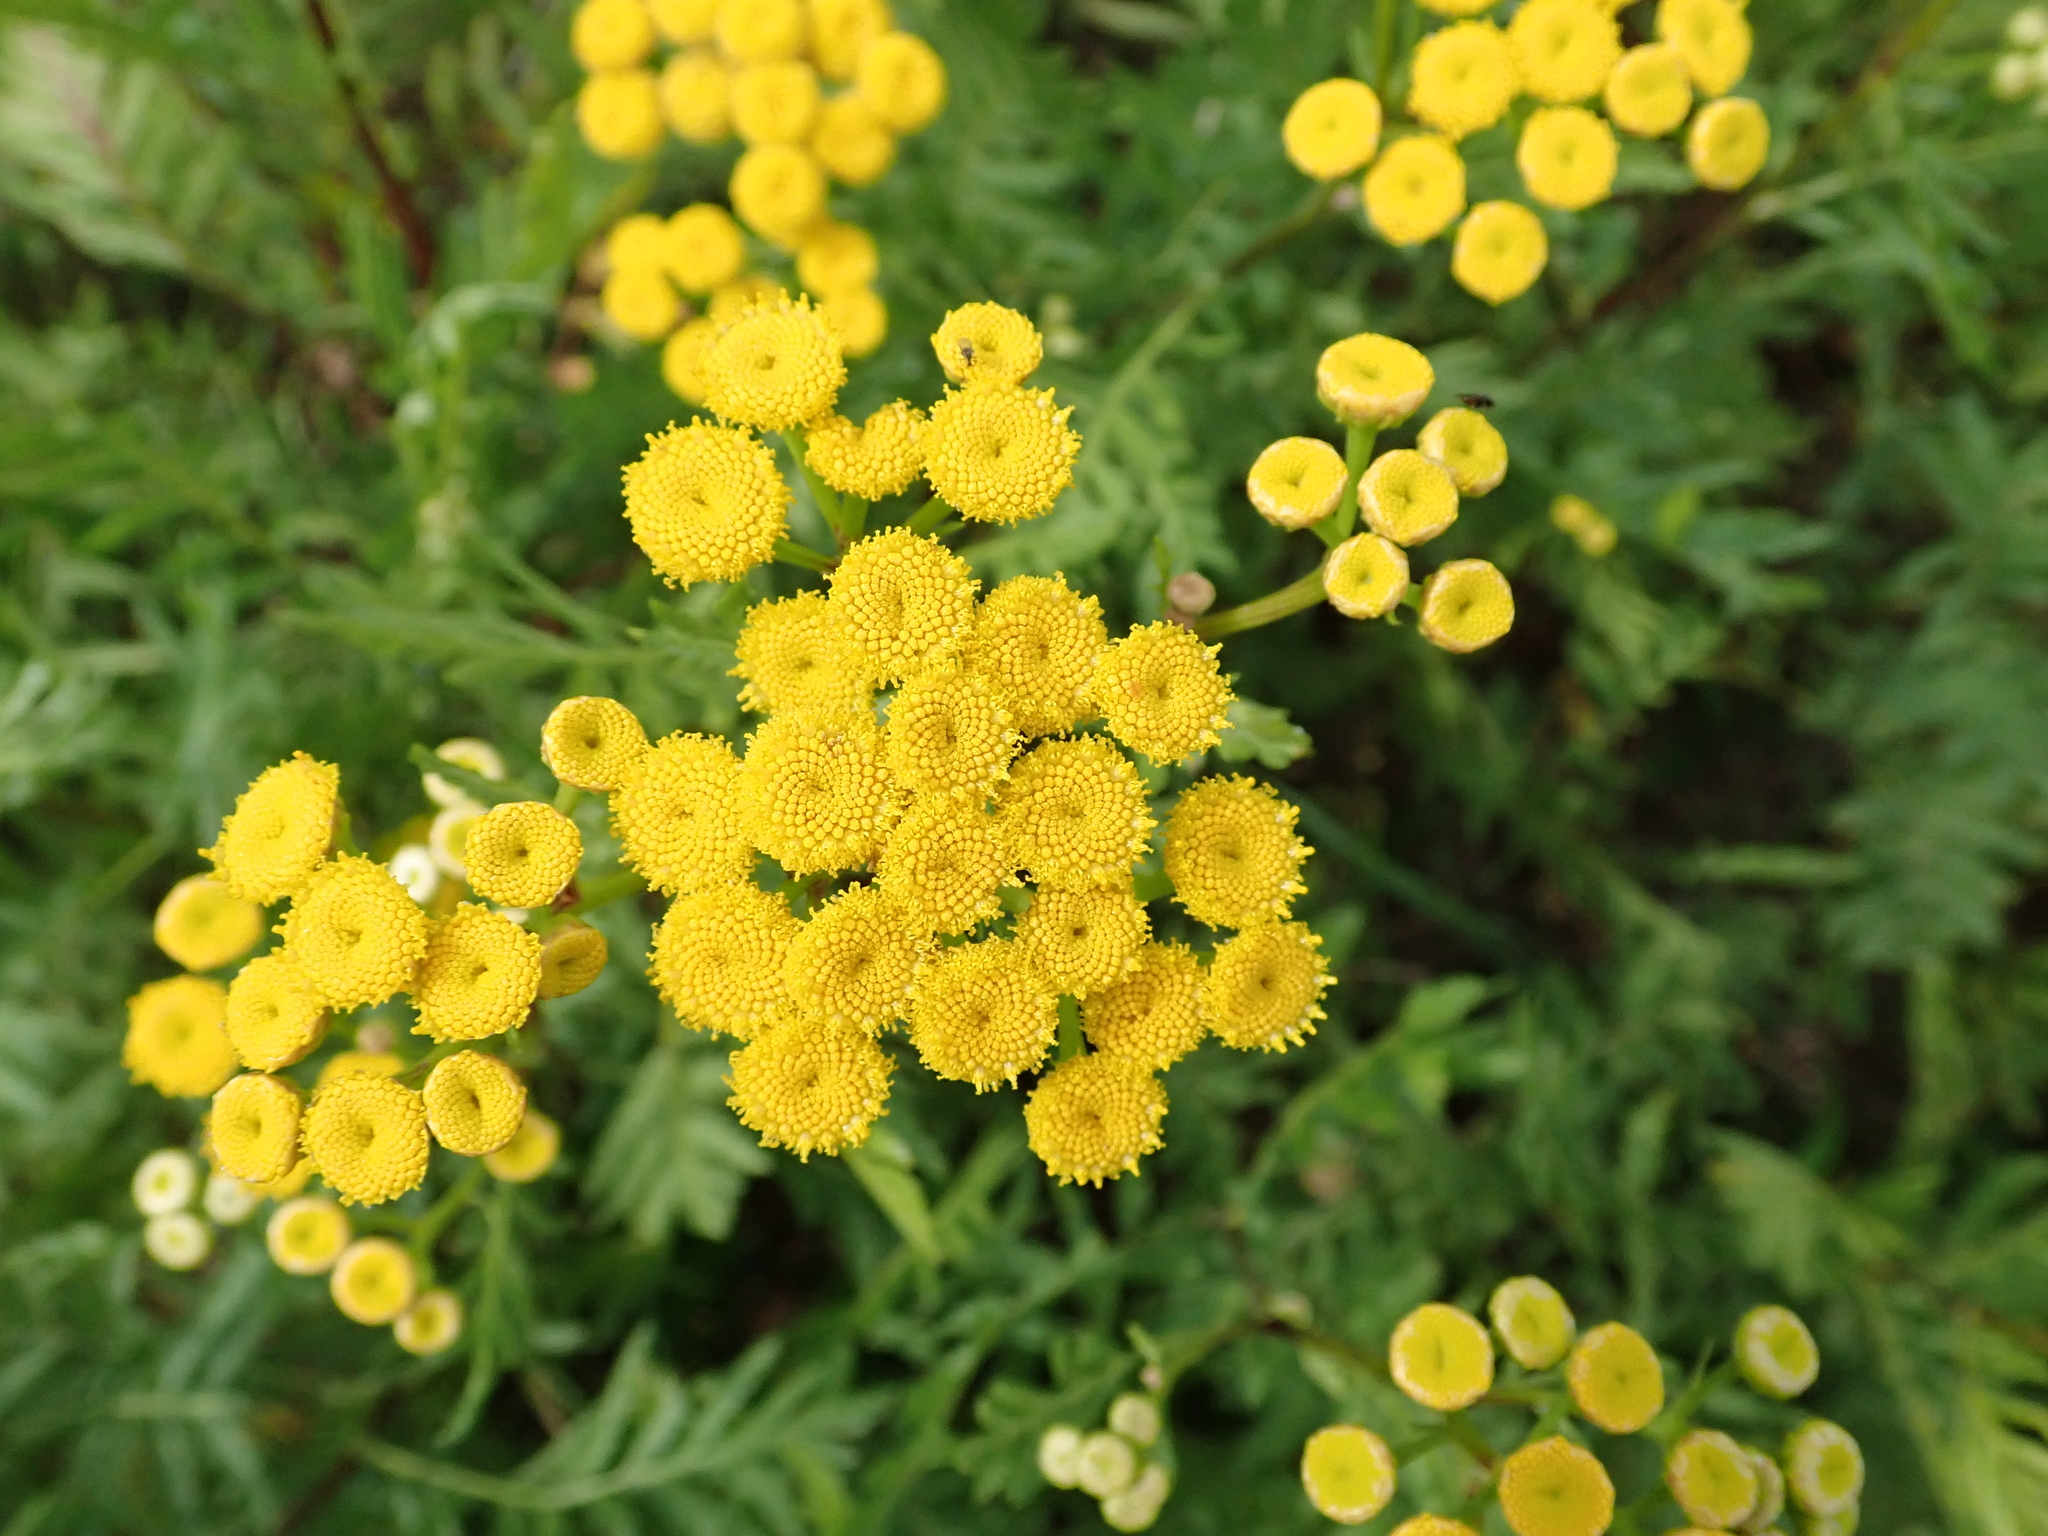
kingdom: Plantae
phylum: Tracheophyta
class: Magnoliopsida
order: Asterales
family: Asteraceae
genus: Tanacetum
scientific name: Tanacetum vulgare
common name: Common tansy
